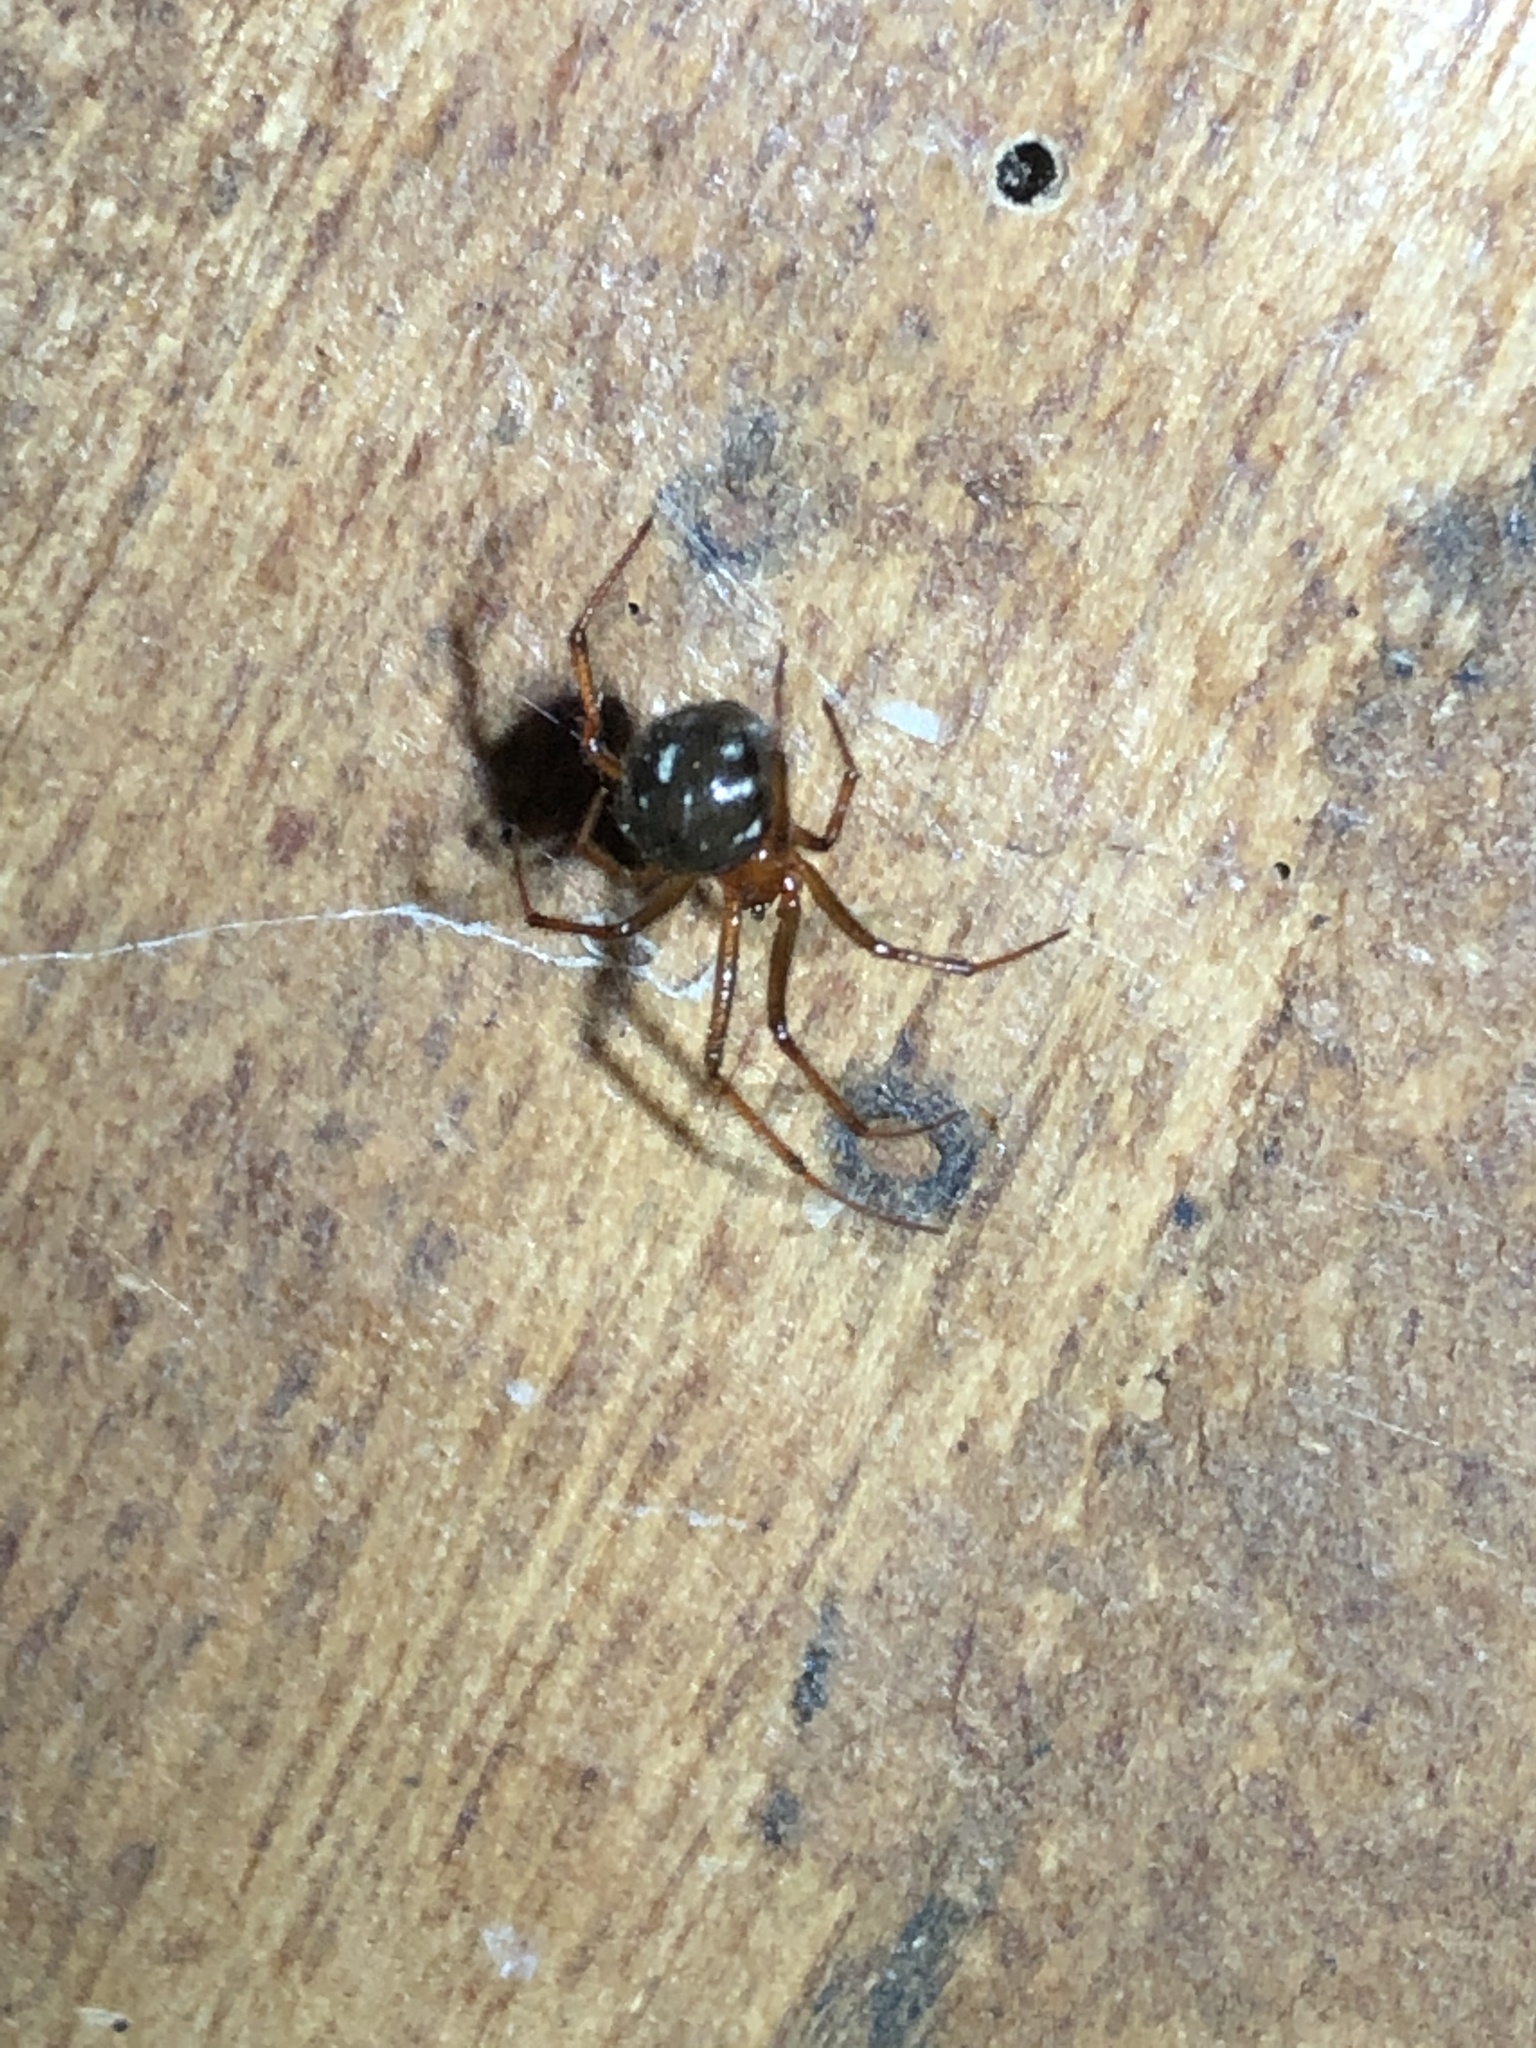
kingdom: Animalia
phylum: Arthropoda
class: Arachnida
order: Araneae
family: Theridiidae
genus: Nesticodes
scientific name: Nesticodes rufipes
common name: Cobweb spiders
